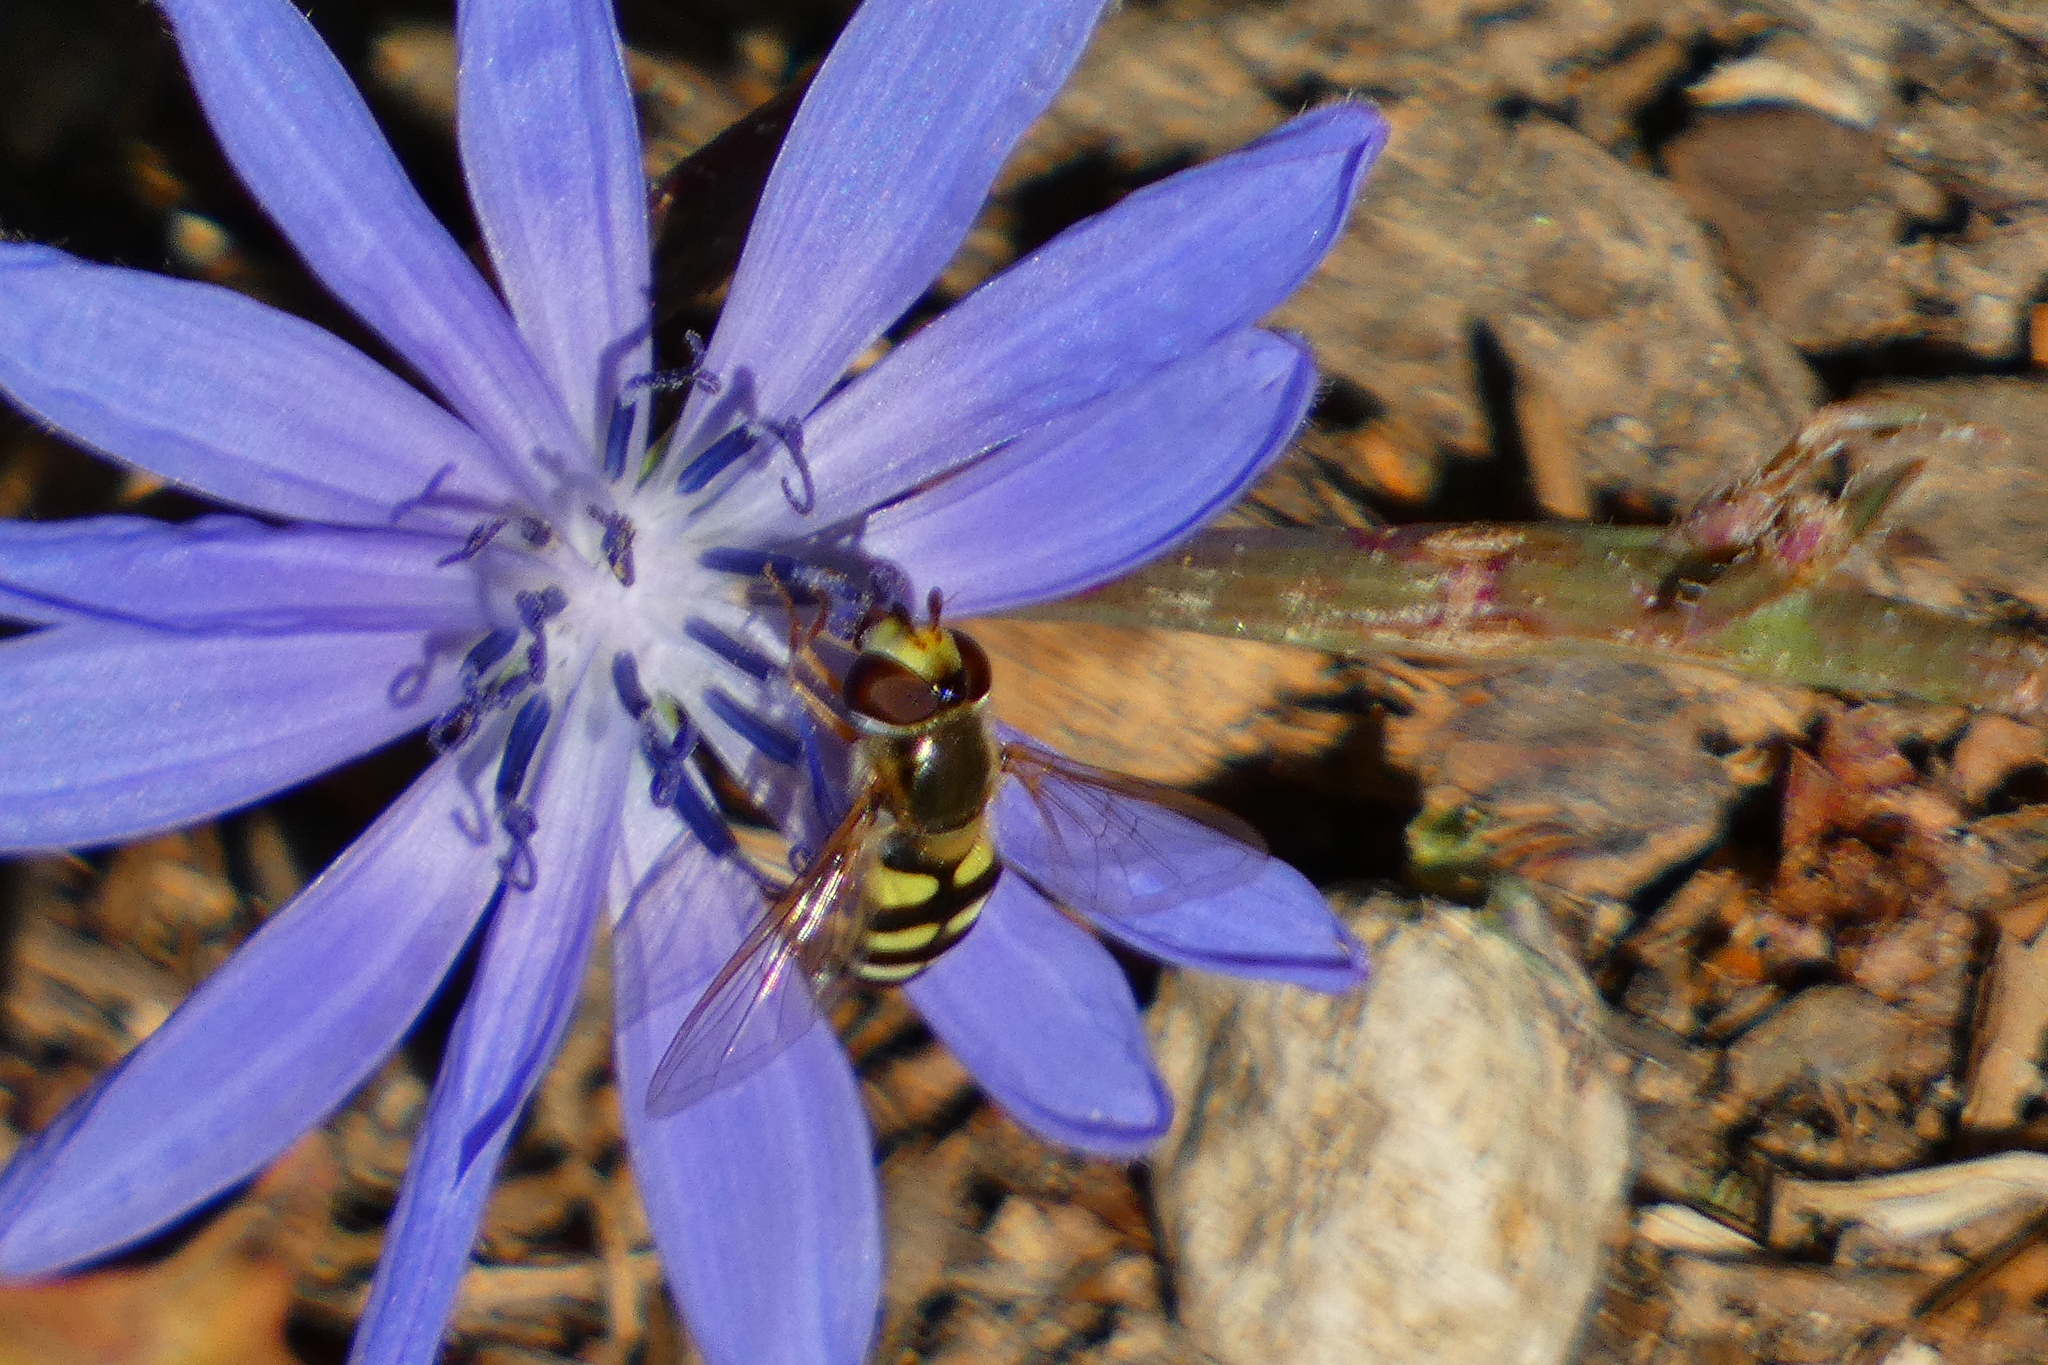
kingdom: Animalia
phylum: Arthropoda
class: Insecta
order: Diptera
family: Syrphidae
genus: Eupeodes
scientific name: Eupeodes corollae
